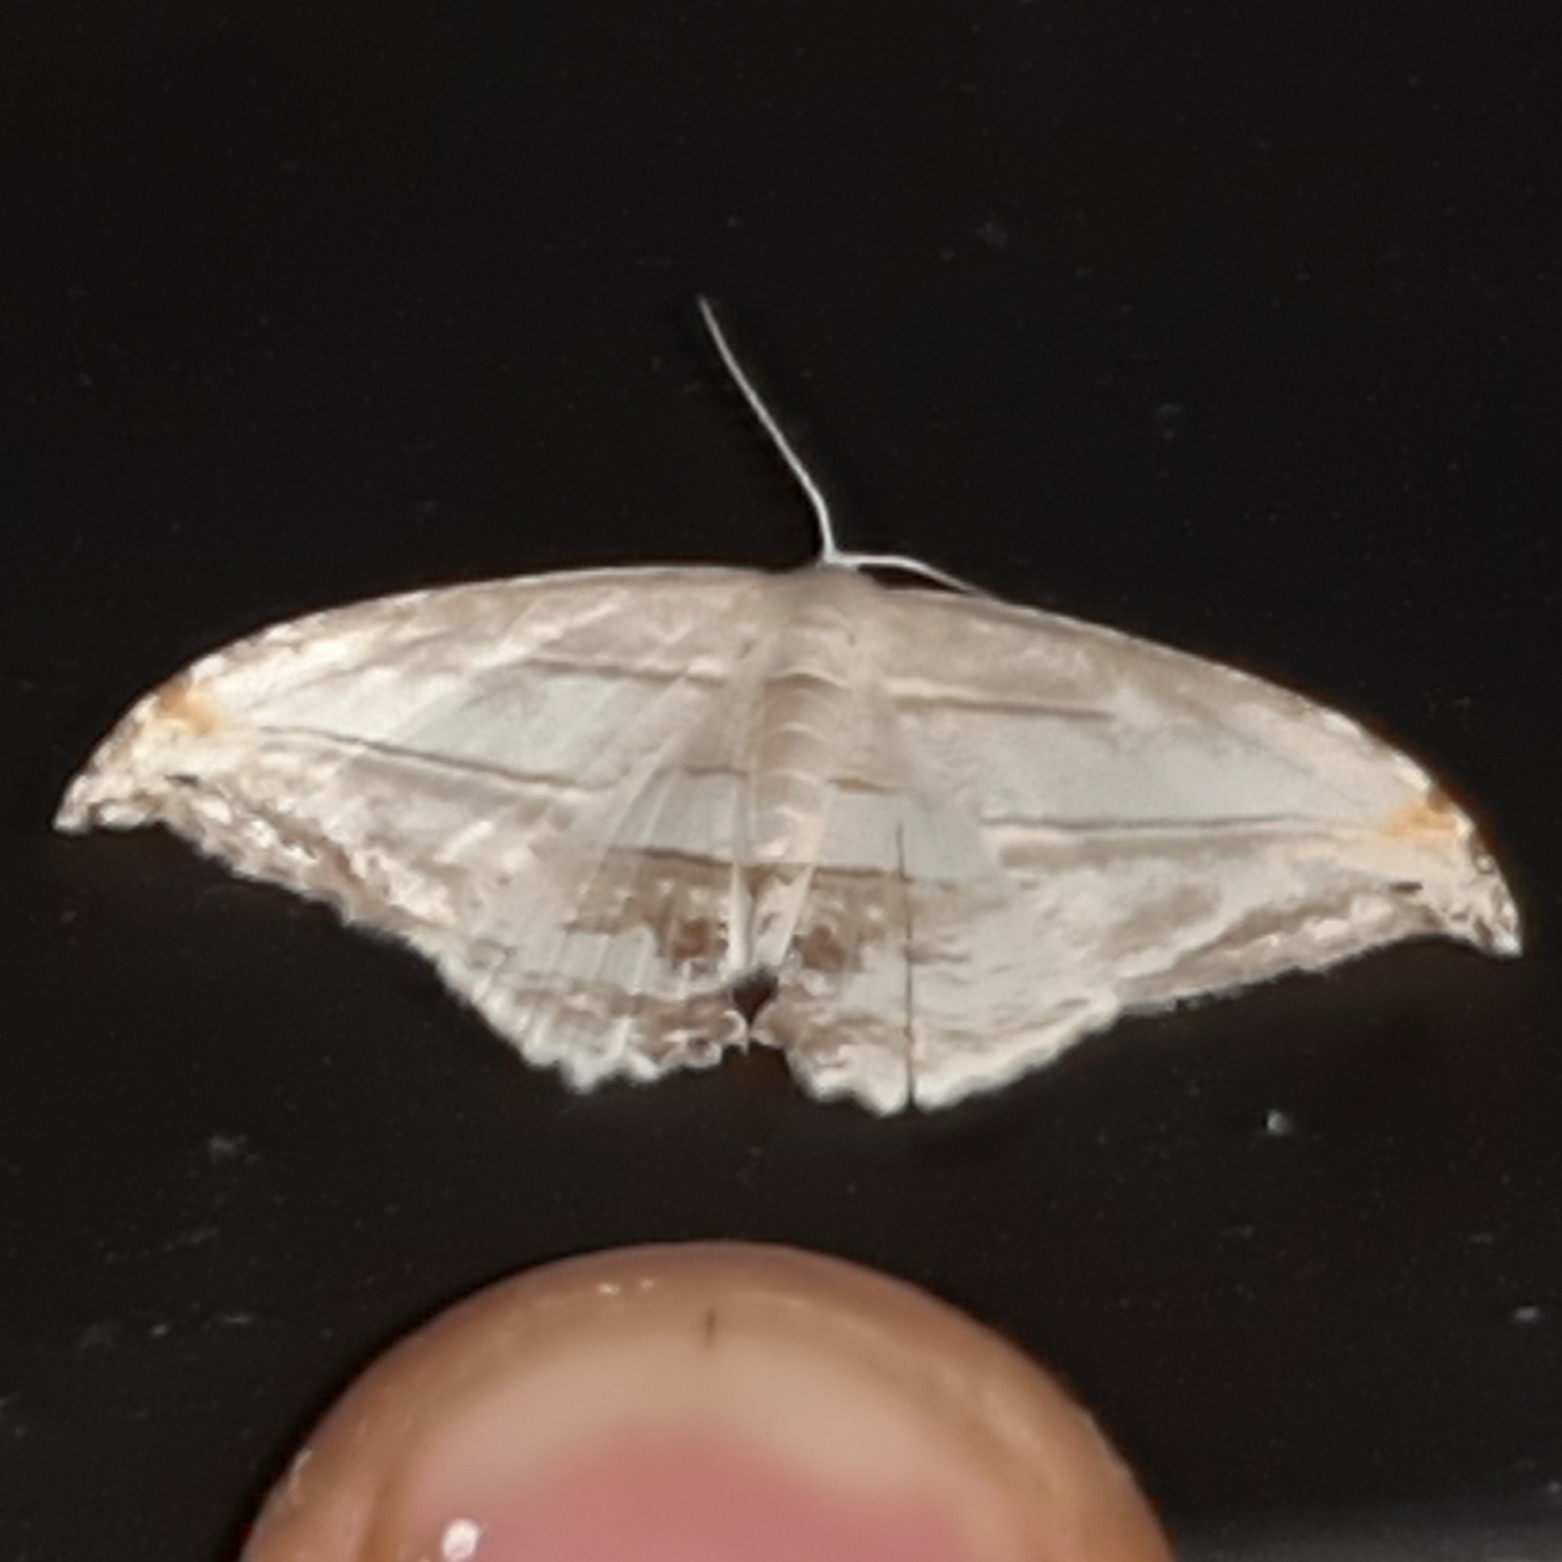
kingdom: Animalia
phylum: Arthropoda
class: Insecta
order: Lepidoptera
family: Uraniidae
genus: Morphomima
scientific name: Morphomima fulvitacta
